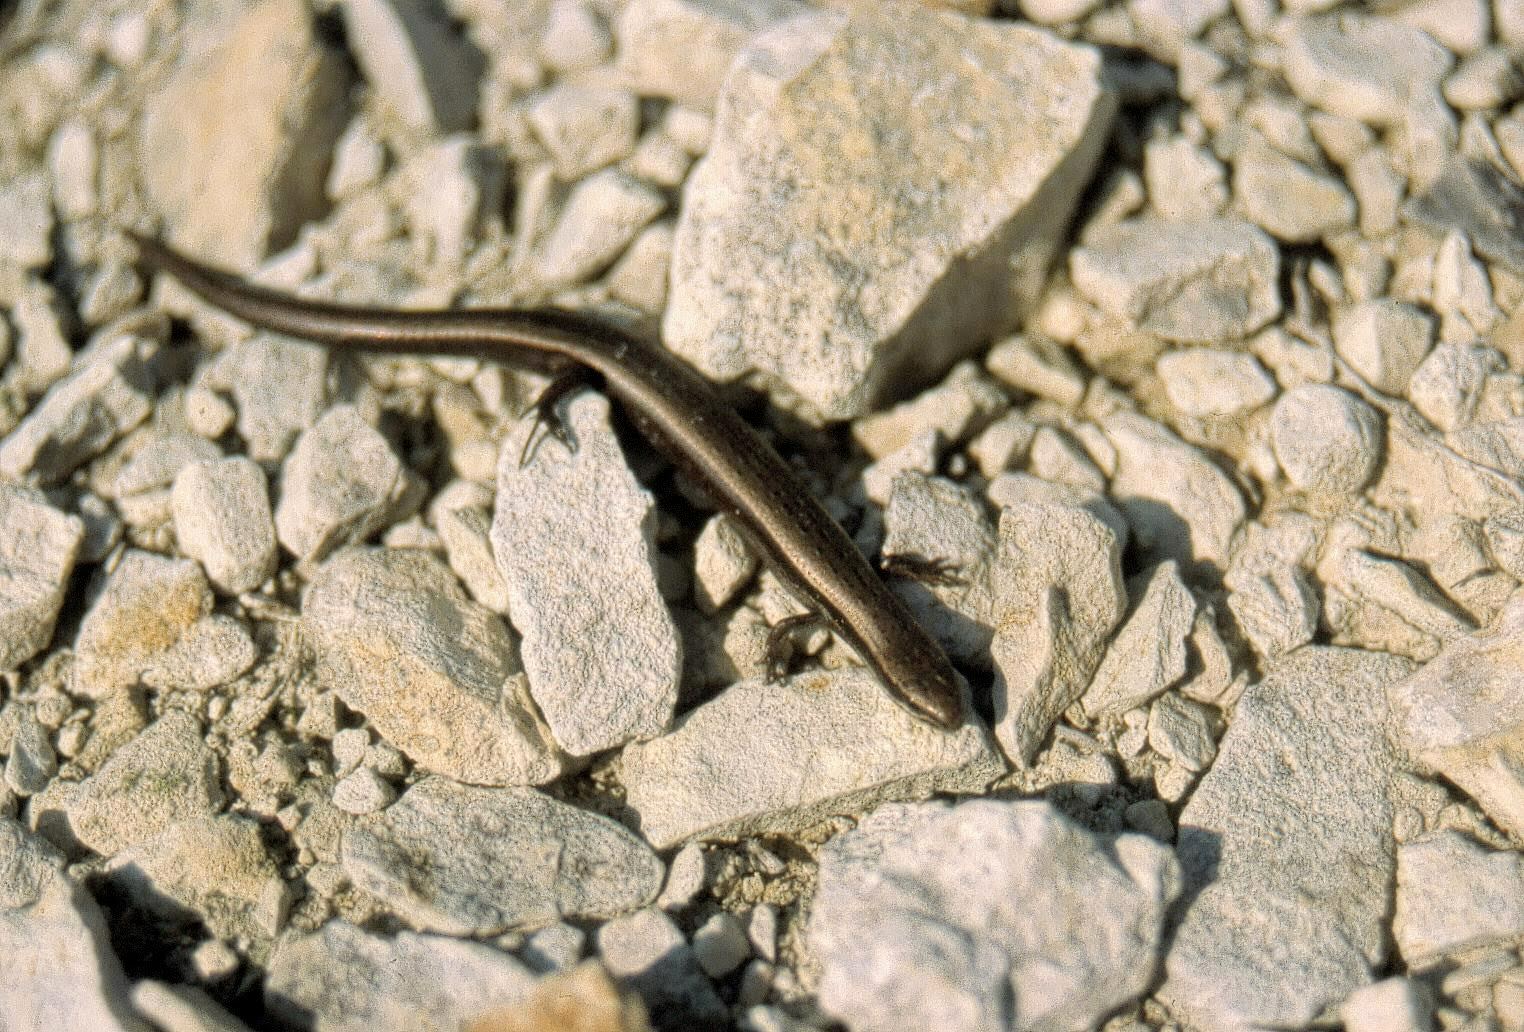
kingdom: Animalia
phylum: Chordata
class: Squamata
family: Scincidae
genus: Ablepharus
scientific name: Ablepharus kitaibelii
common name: Juniper skink
